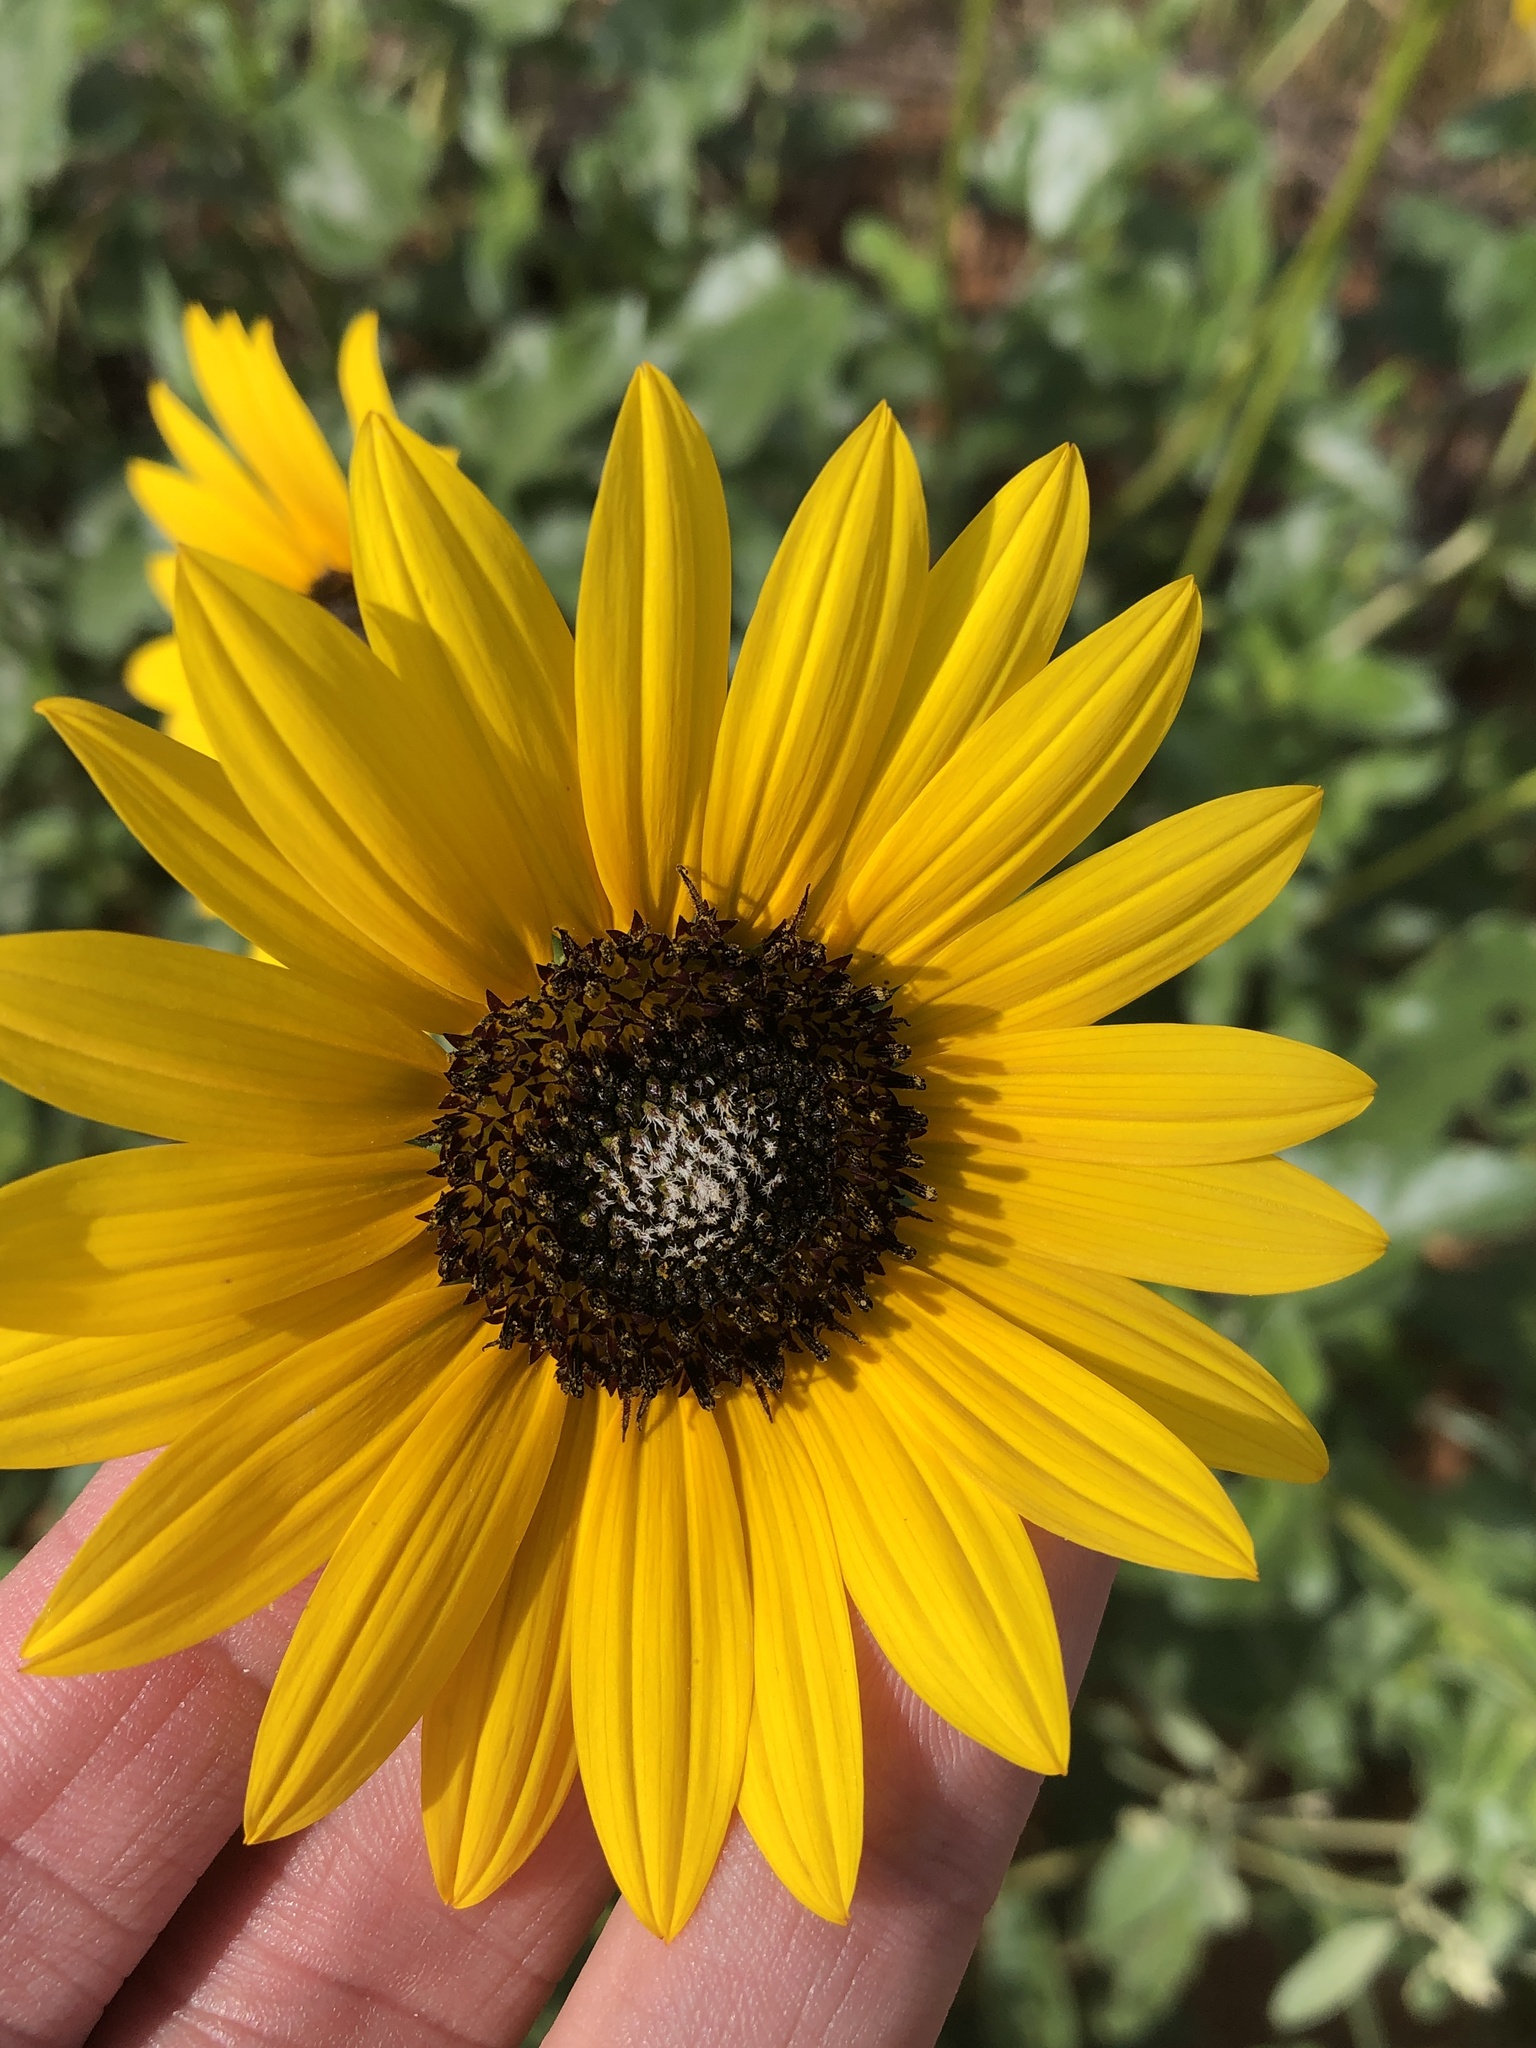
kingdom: Plantae
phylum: Tracheophyta
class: Magnoliopsida
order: Asterales
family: Asteraceae
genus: Helianthus
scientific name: Helianthus petiolaris
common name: Lesser sunflower
